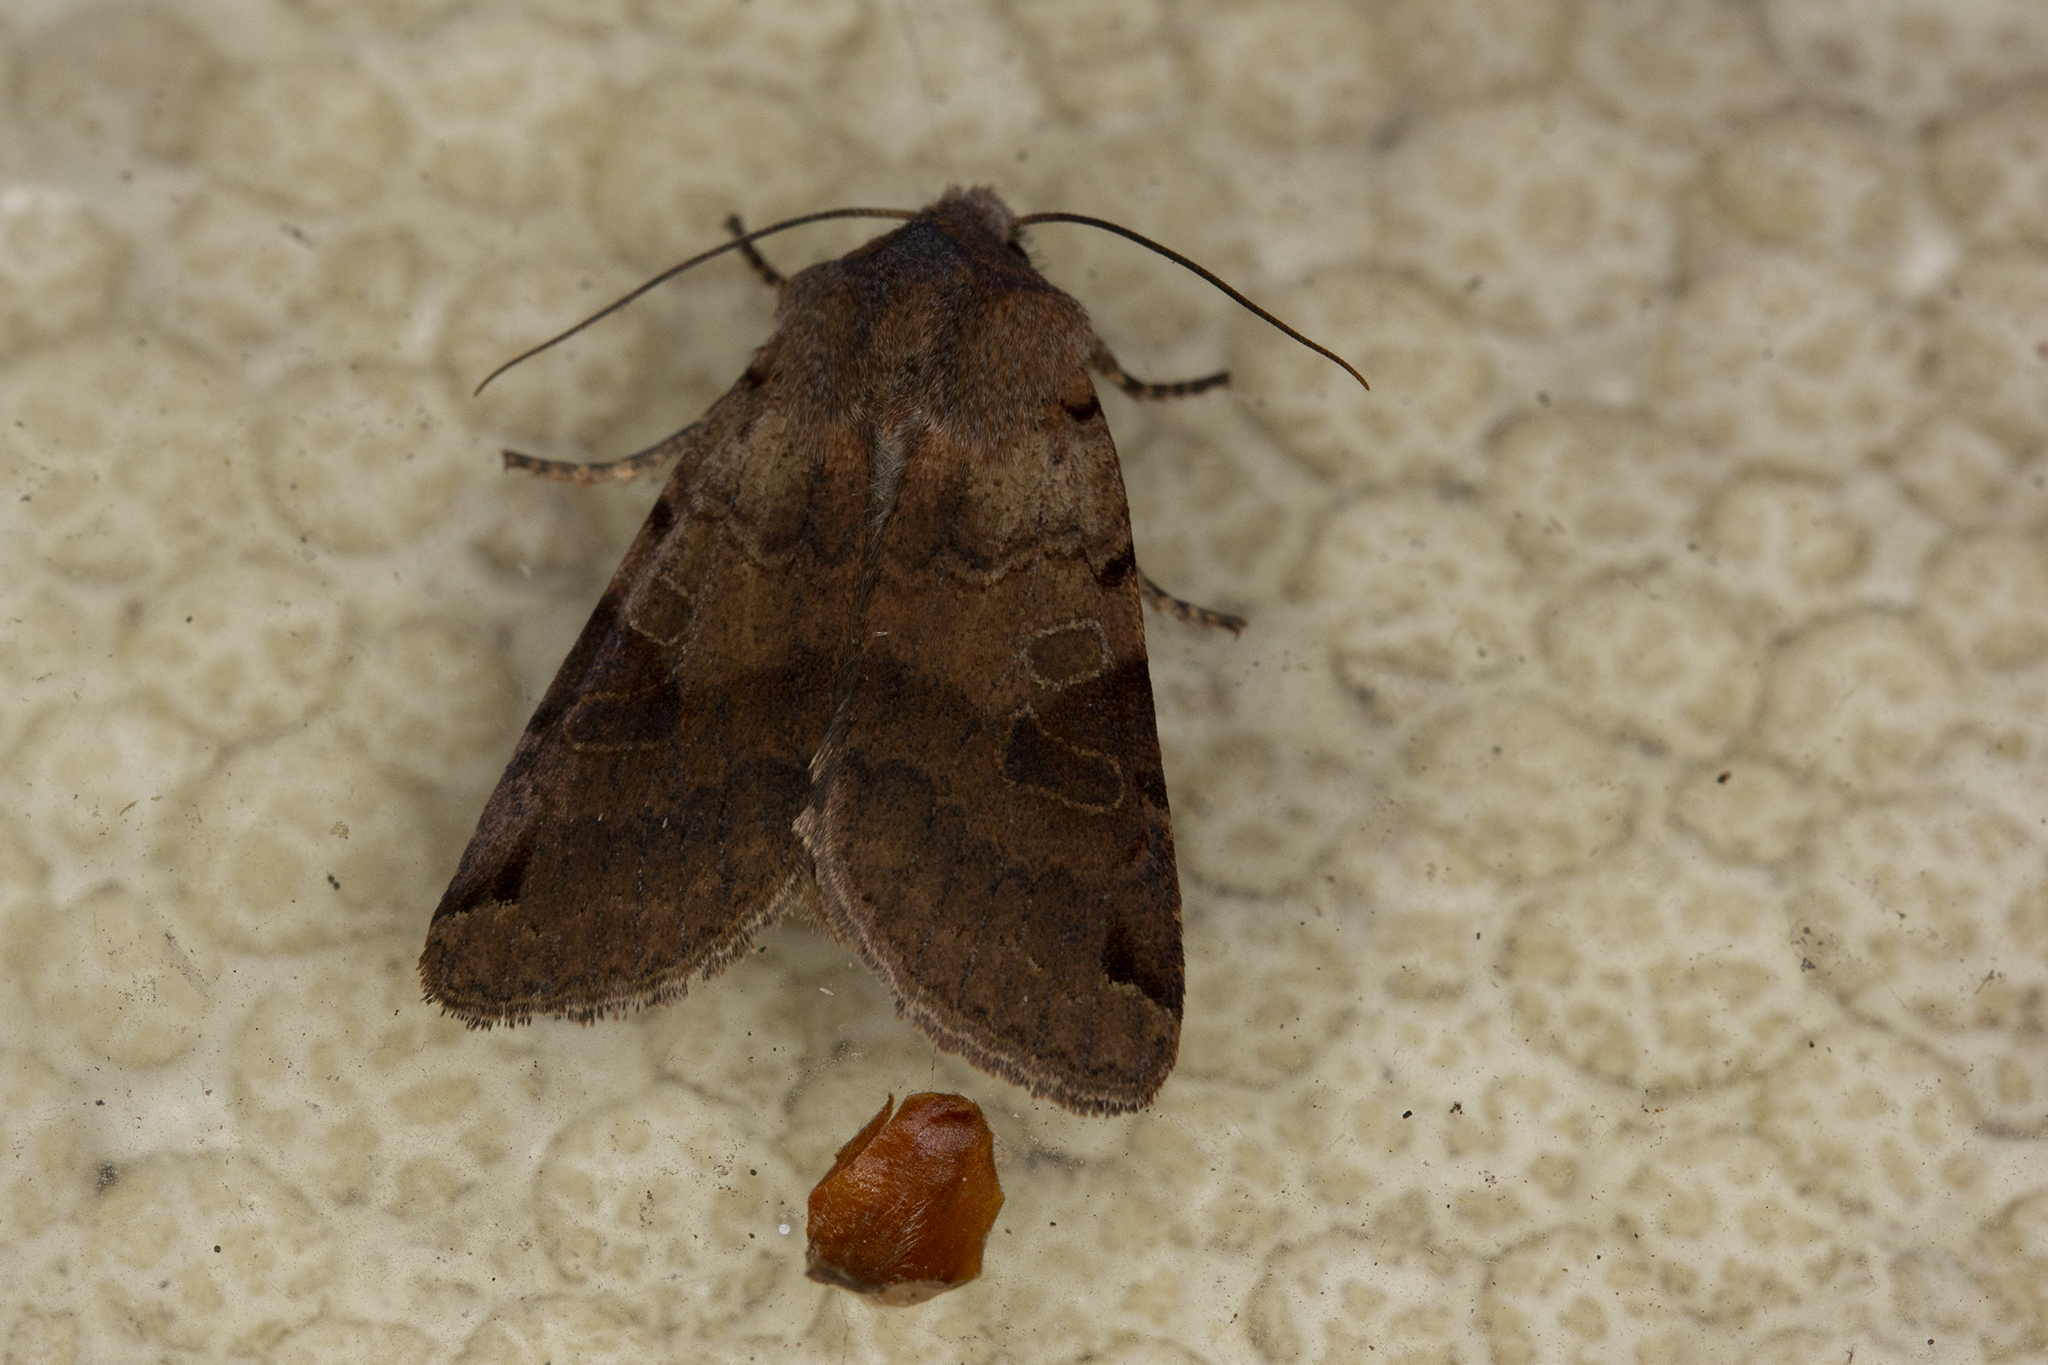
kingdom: Animalia
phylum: Arthropoda
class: Insecta
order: Lepidoptera
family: Noctuidae
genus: Agrochola
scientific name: Agrochola litura
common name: Brown-spot pinion
